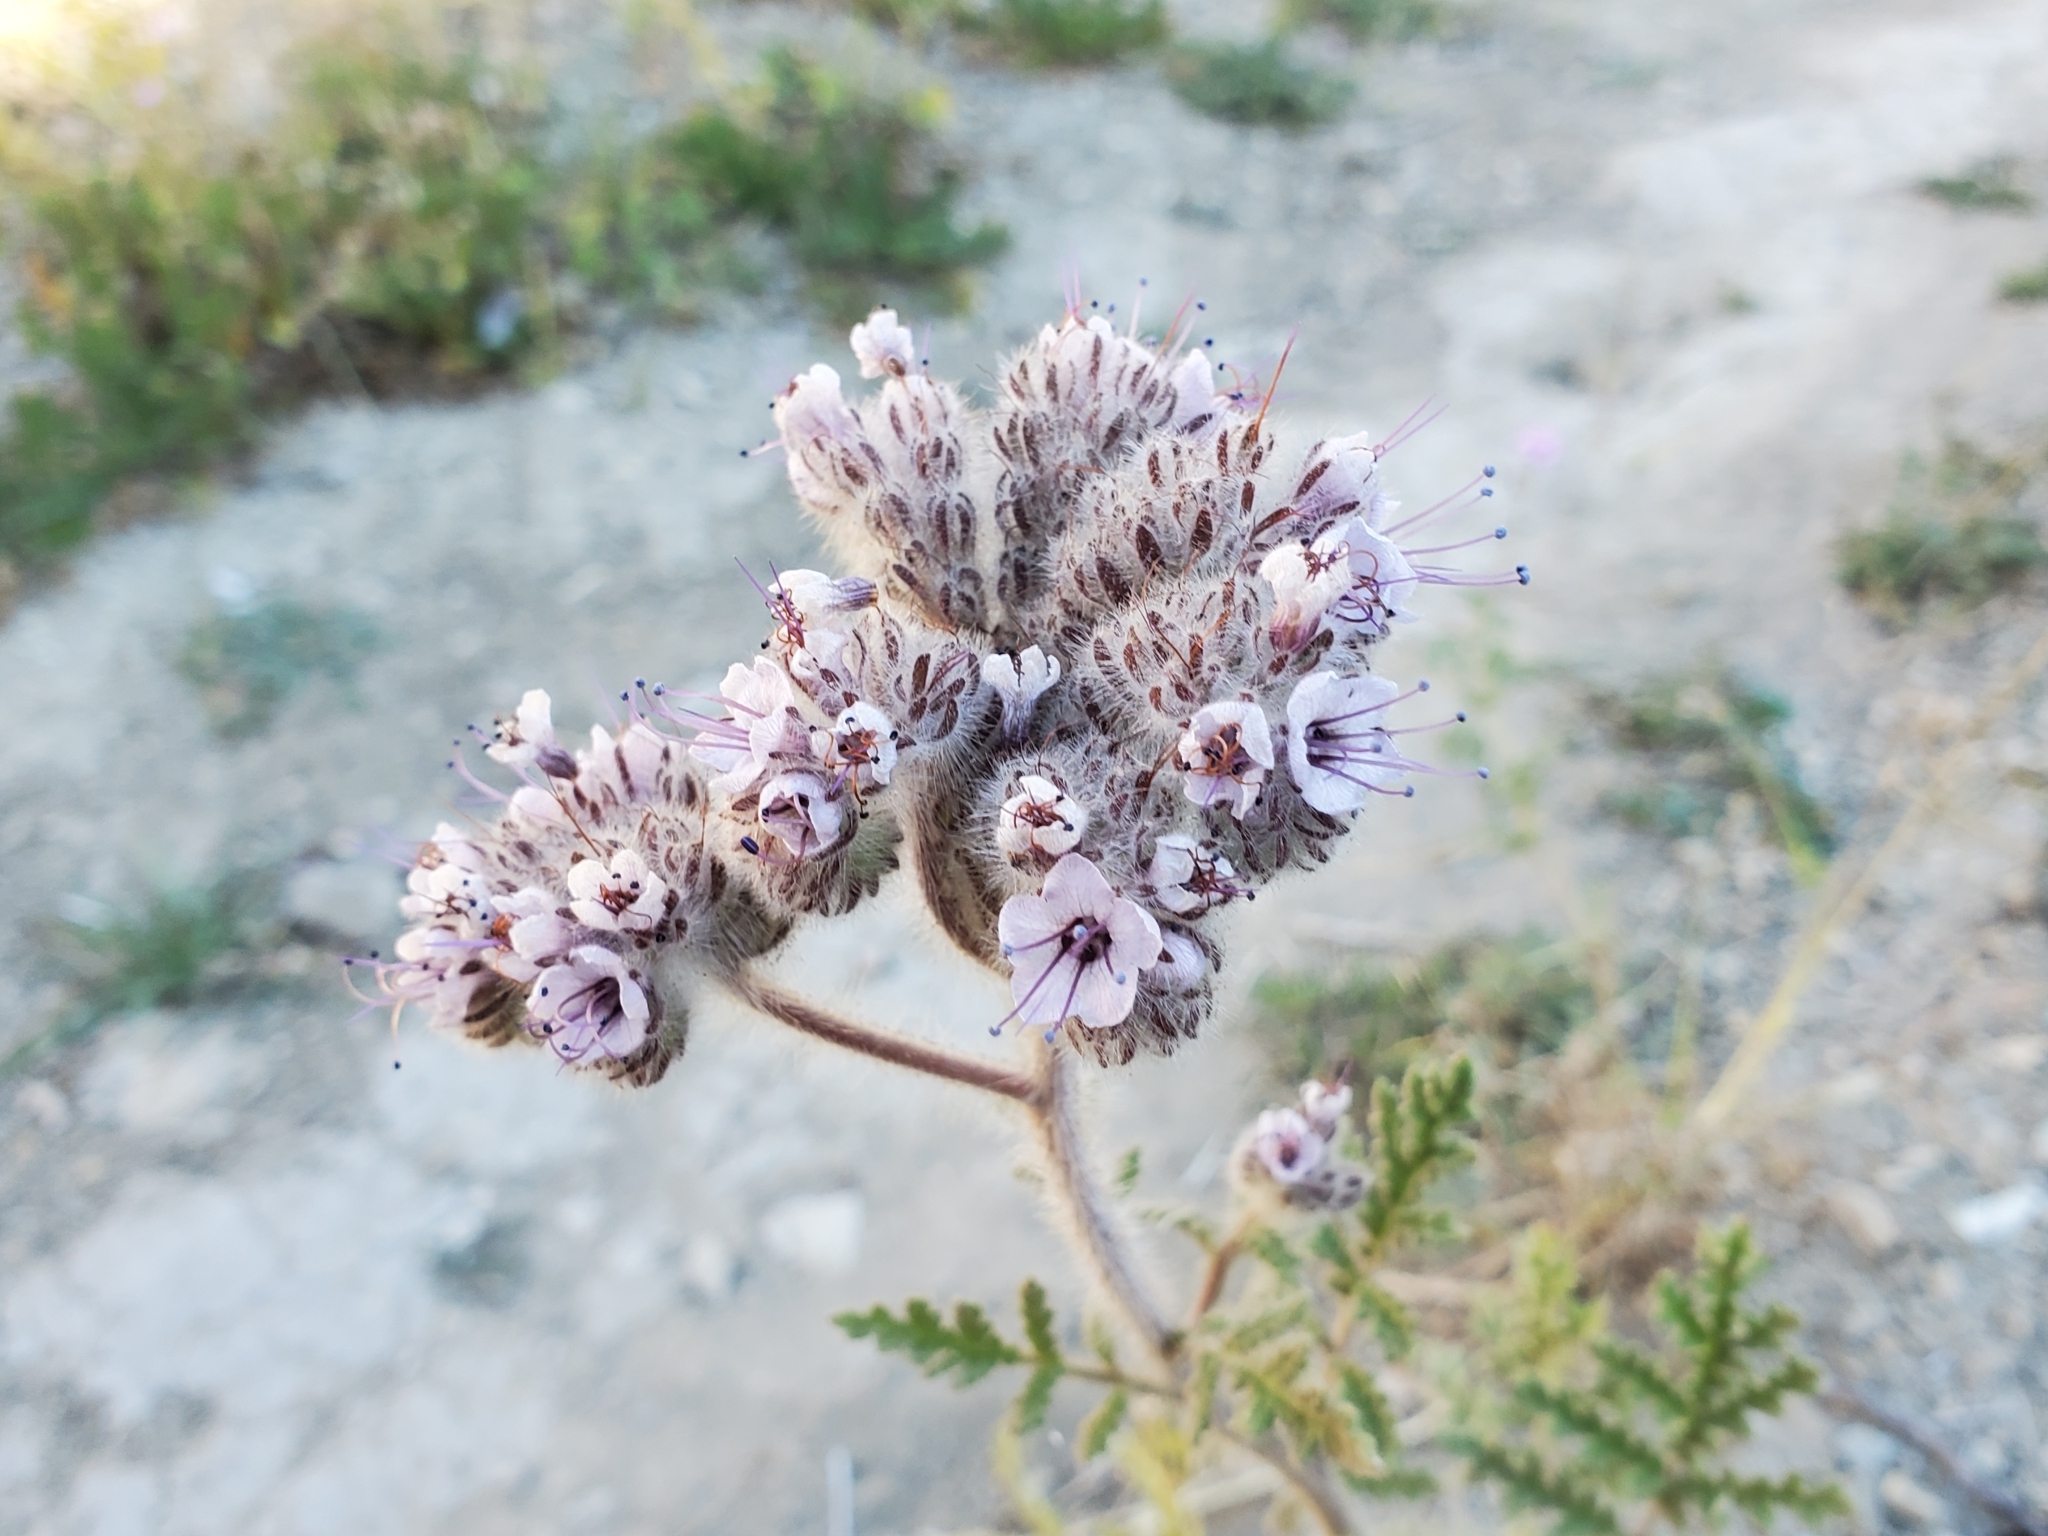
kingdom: Plantae
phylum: Tracheophyta
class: Magnoliopsida
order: Boraginales
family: Hydrophyllaceae
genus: Phacelia
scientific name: Phacelia hubbyi
